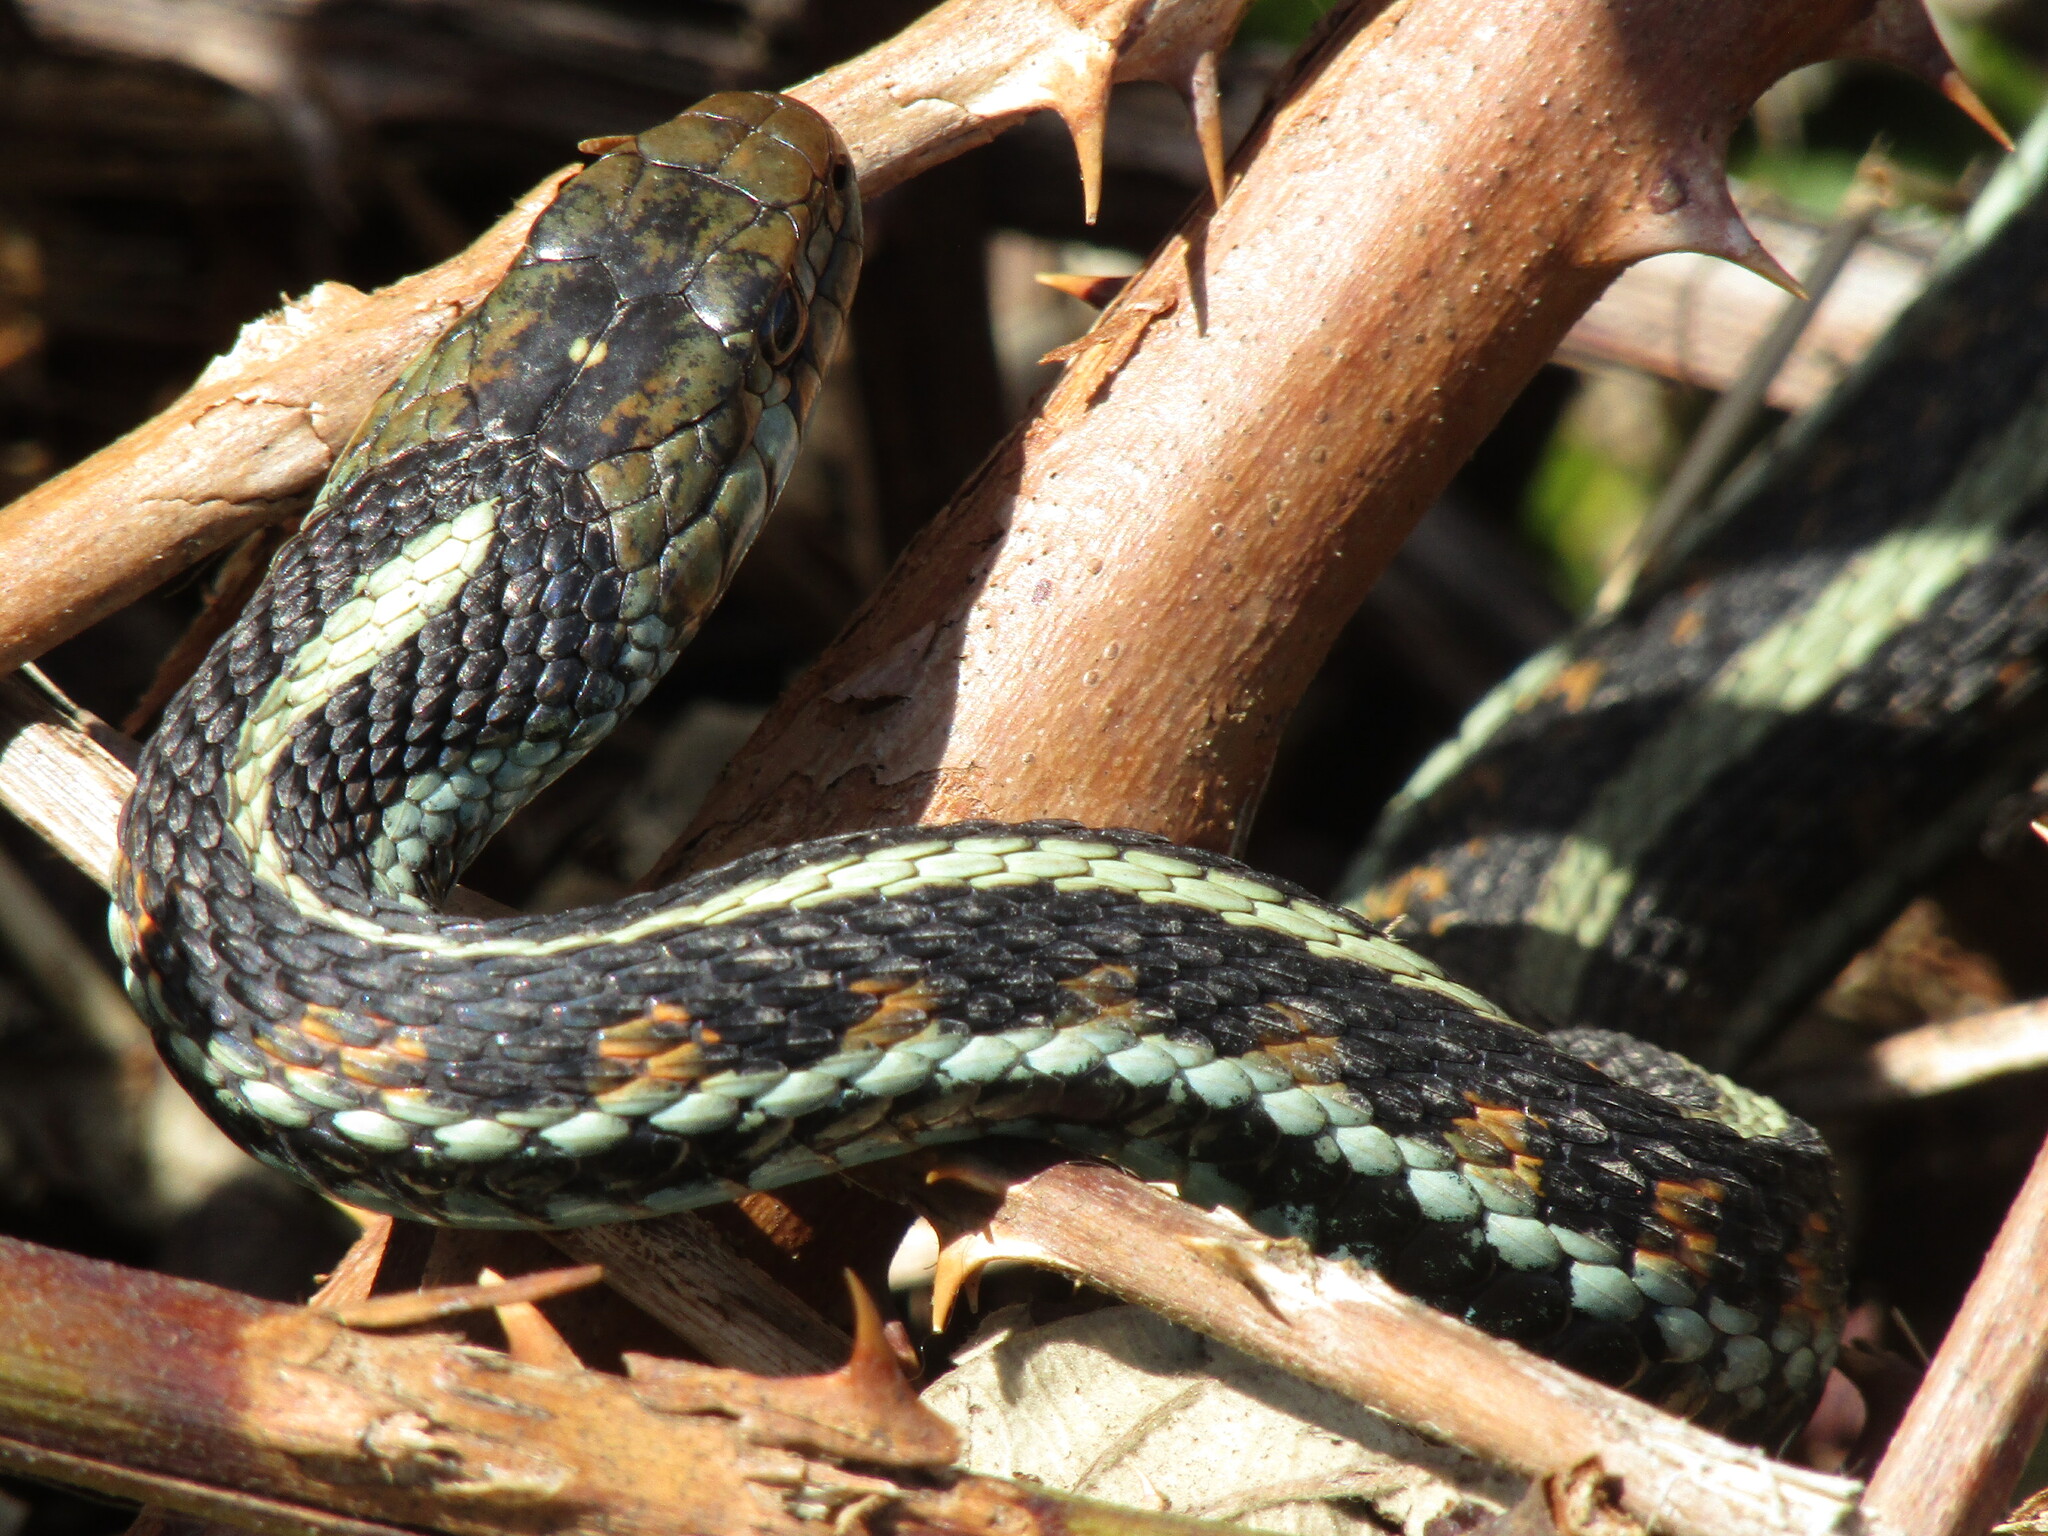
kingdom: Animalia
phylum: Chordata
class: Squamata
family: Colubridae
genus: Thamnophis
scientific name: Thamnophis sirtalis
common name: Common garter snake
